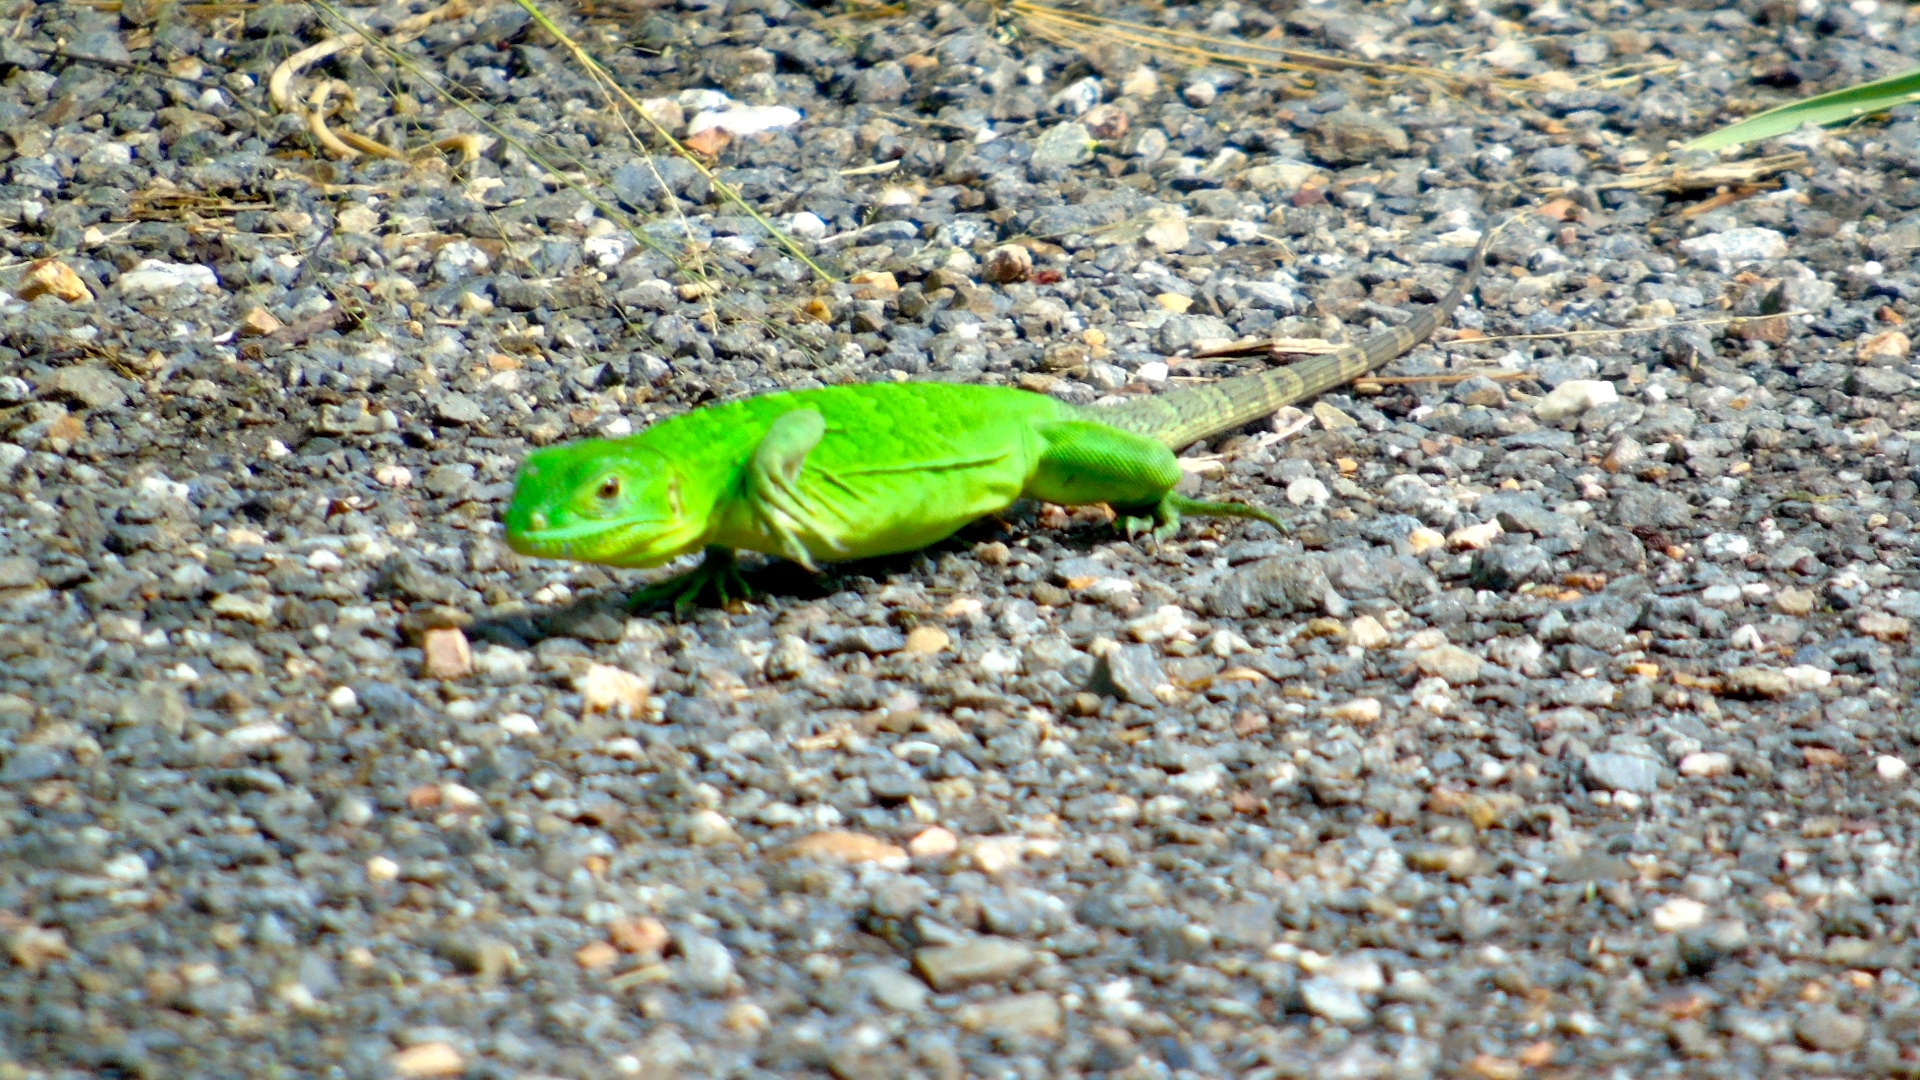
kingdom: Animalia
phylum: Chordata
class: Squamata
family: Iguanidae
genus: Ctenosaura
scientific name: Ctenosaura pectinata
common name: Guerreran spiny-tailed iguana
